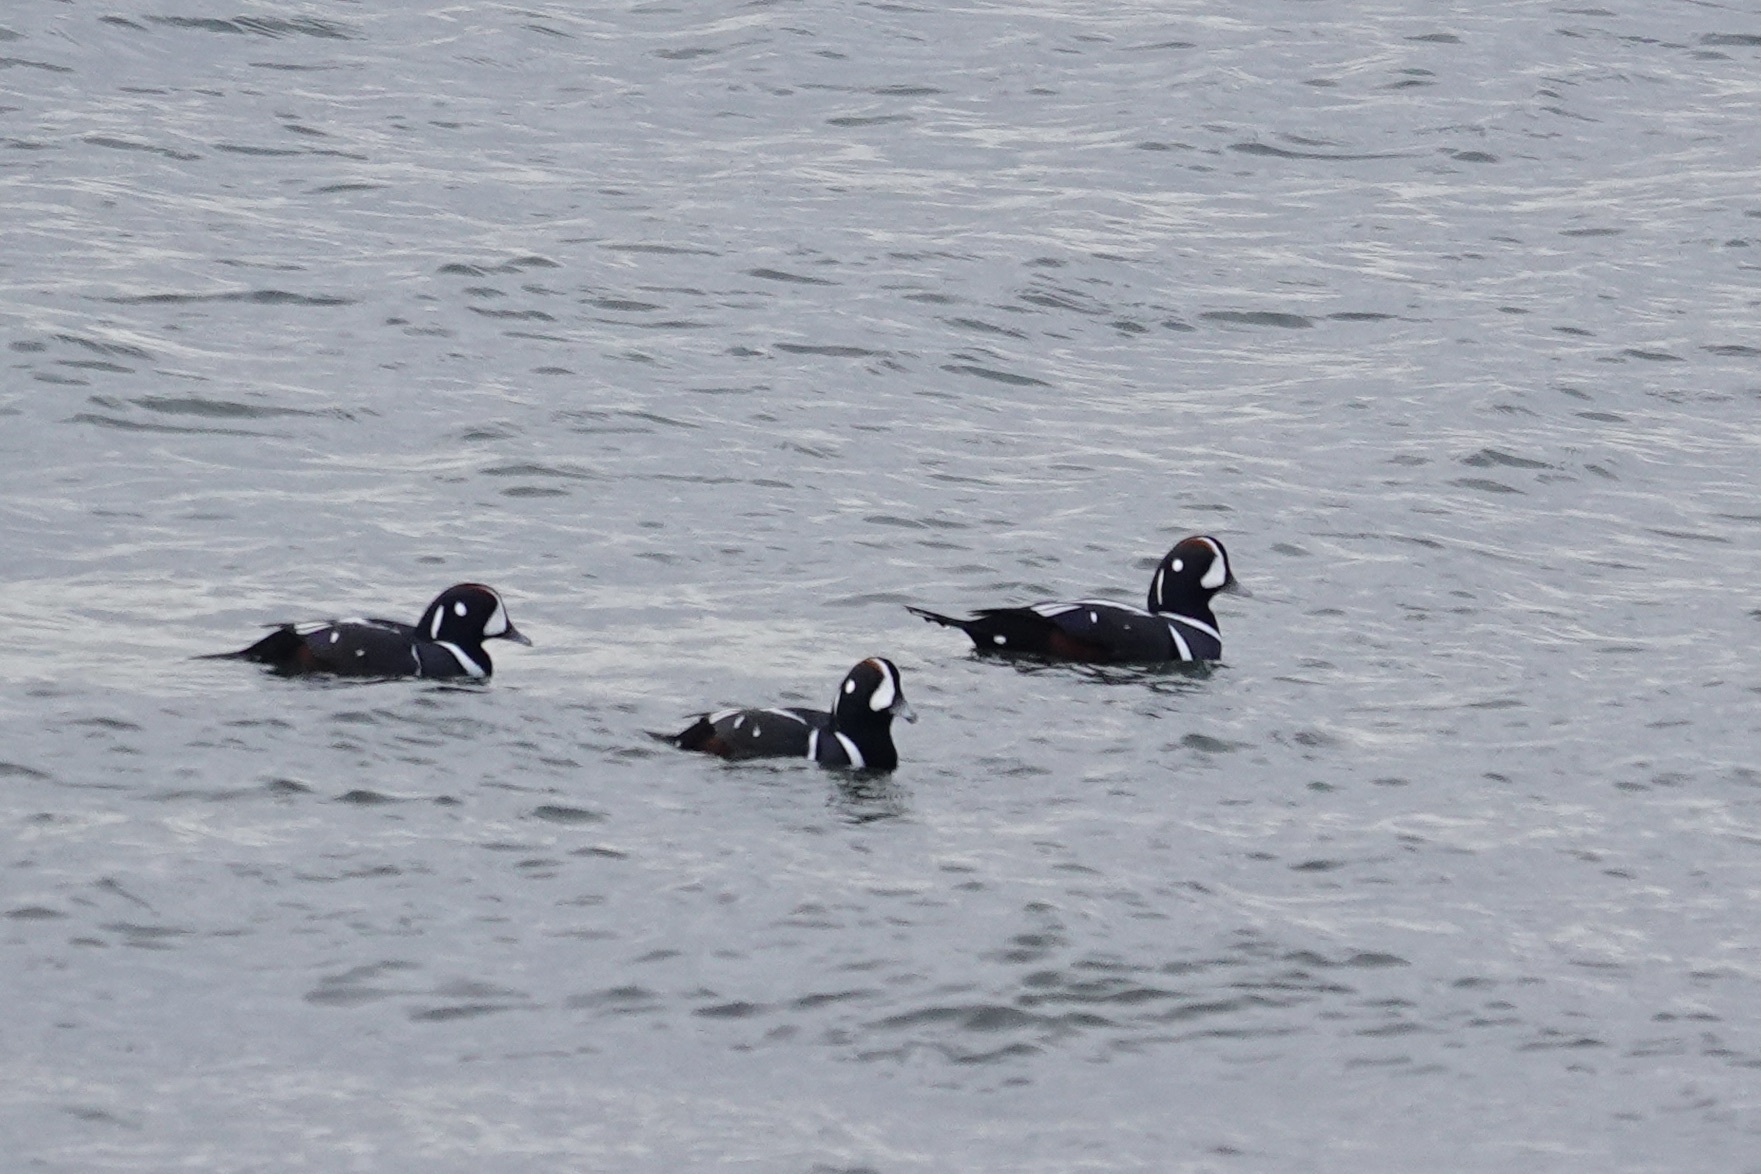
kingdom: Animalia
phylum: Chordata
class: Aves
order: Anseriformes
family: Anatidae
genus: Histrionicus
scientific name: Histrionicus histrionicus
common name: Harlequin duck
